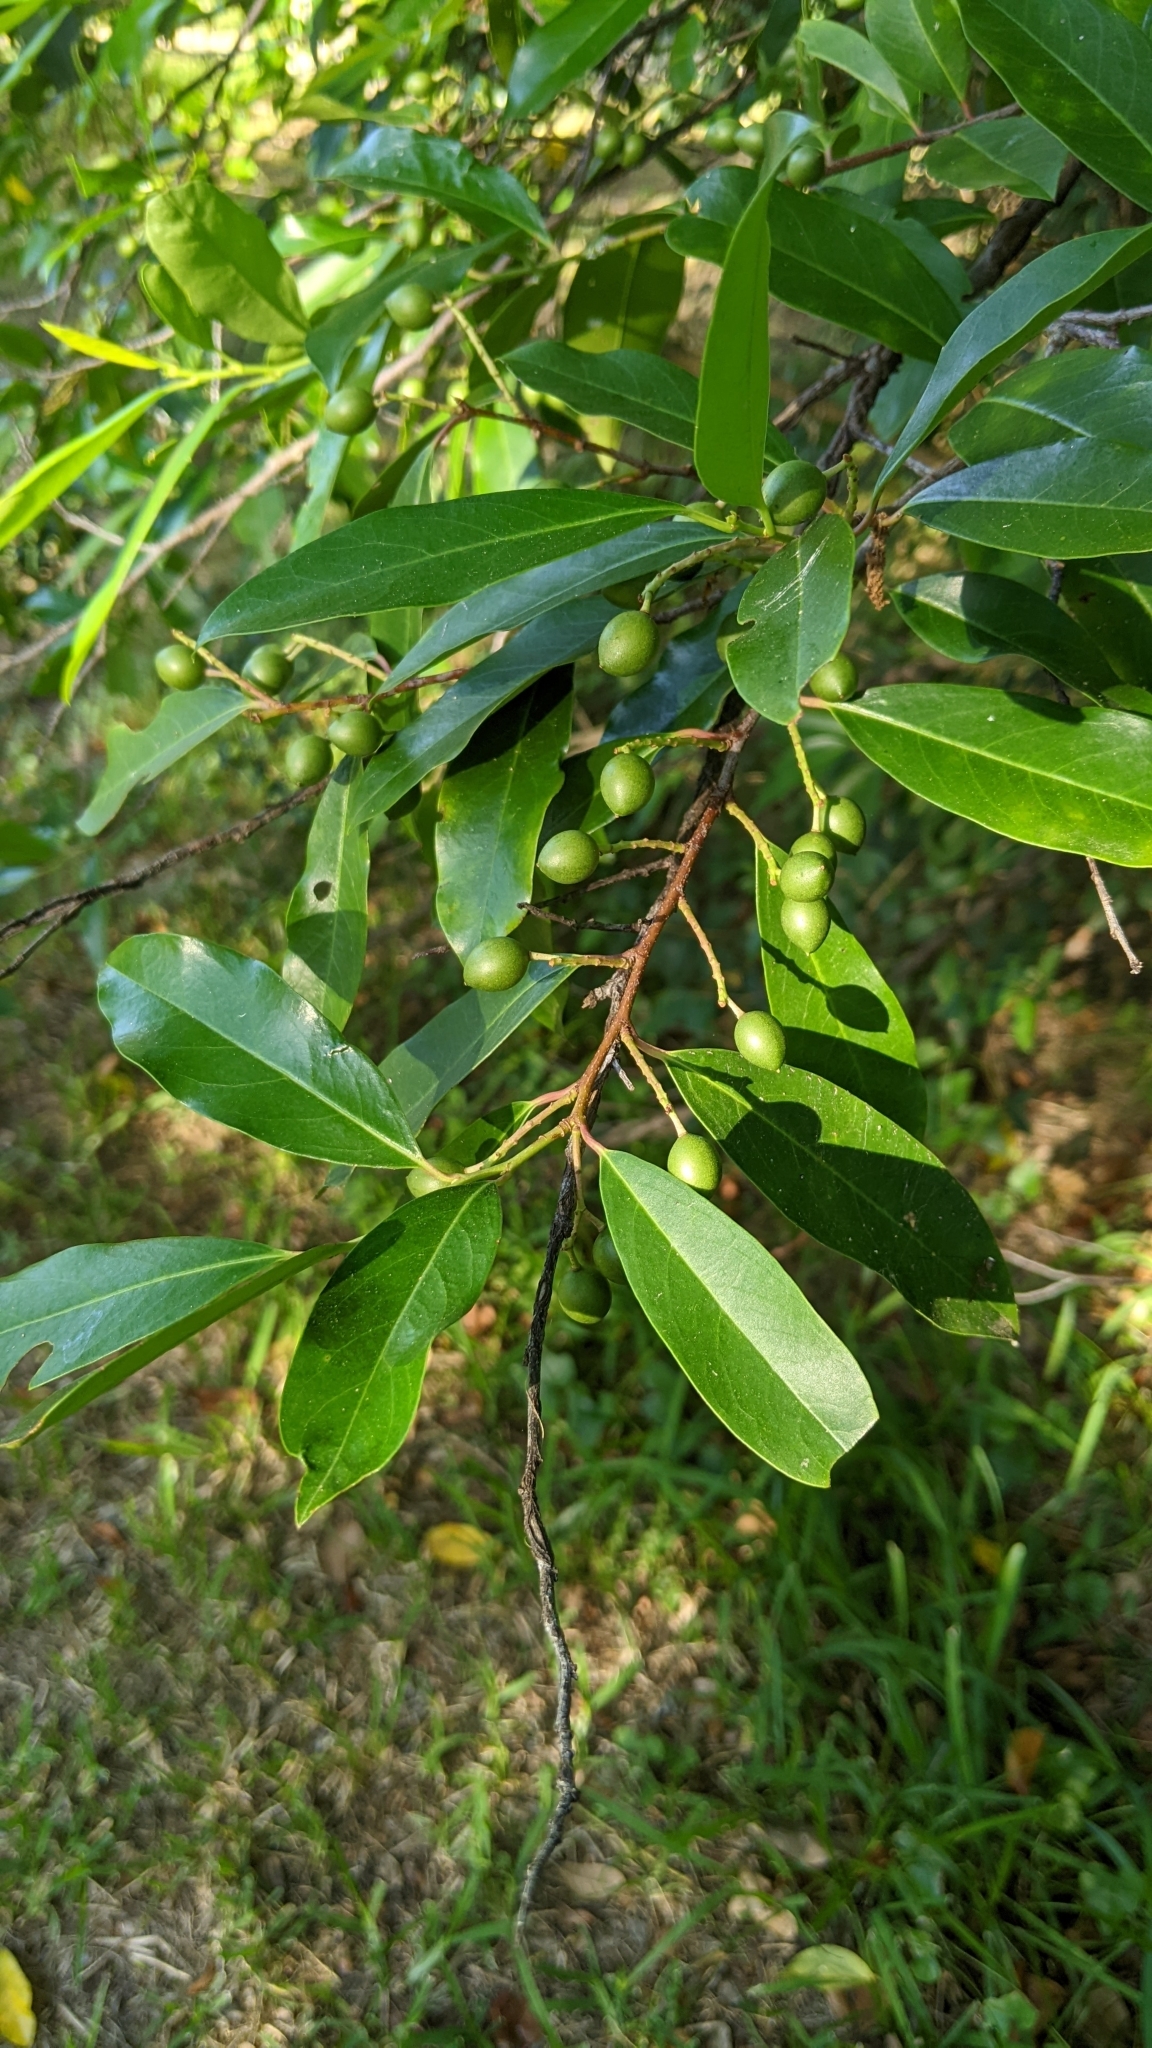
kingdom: Plantae
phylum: Tracheophyta
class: Magnoliopsida
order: Rosales
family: Rosaceae
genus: Prunus
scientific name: Prunus caroliniana
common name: Carolina laurel cherry
